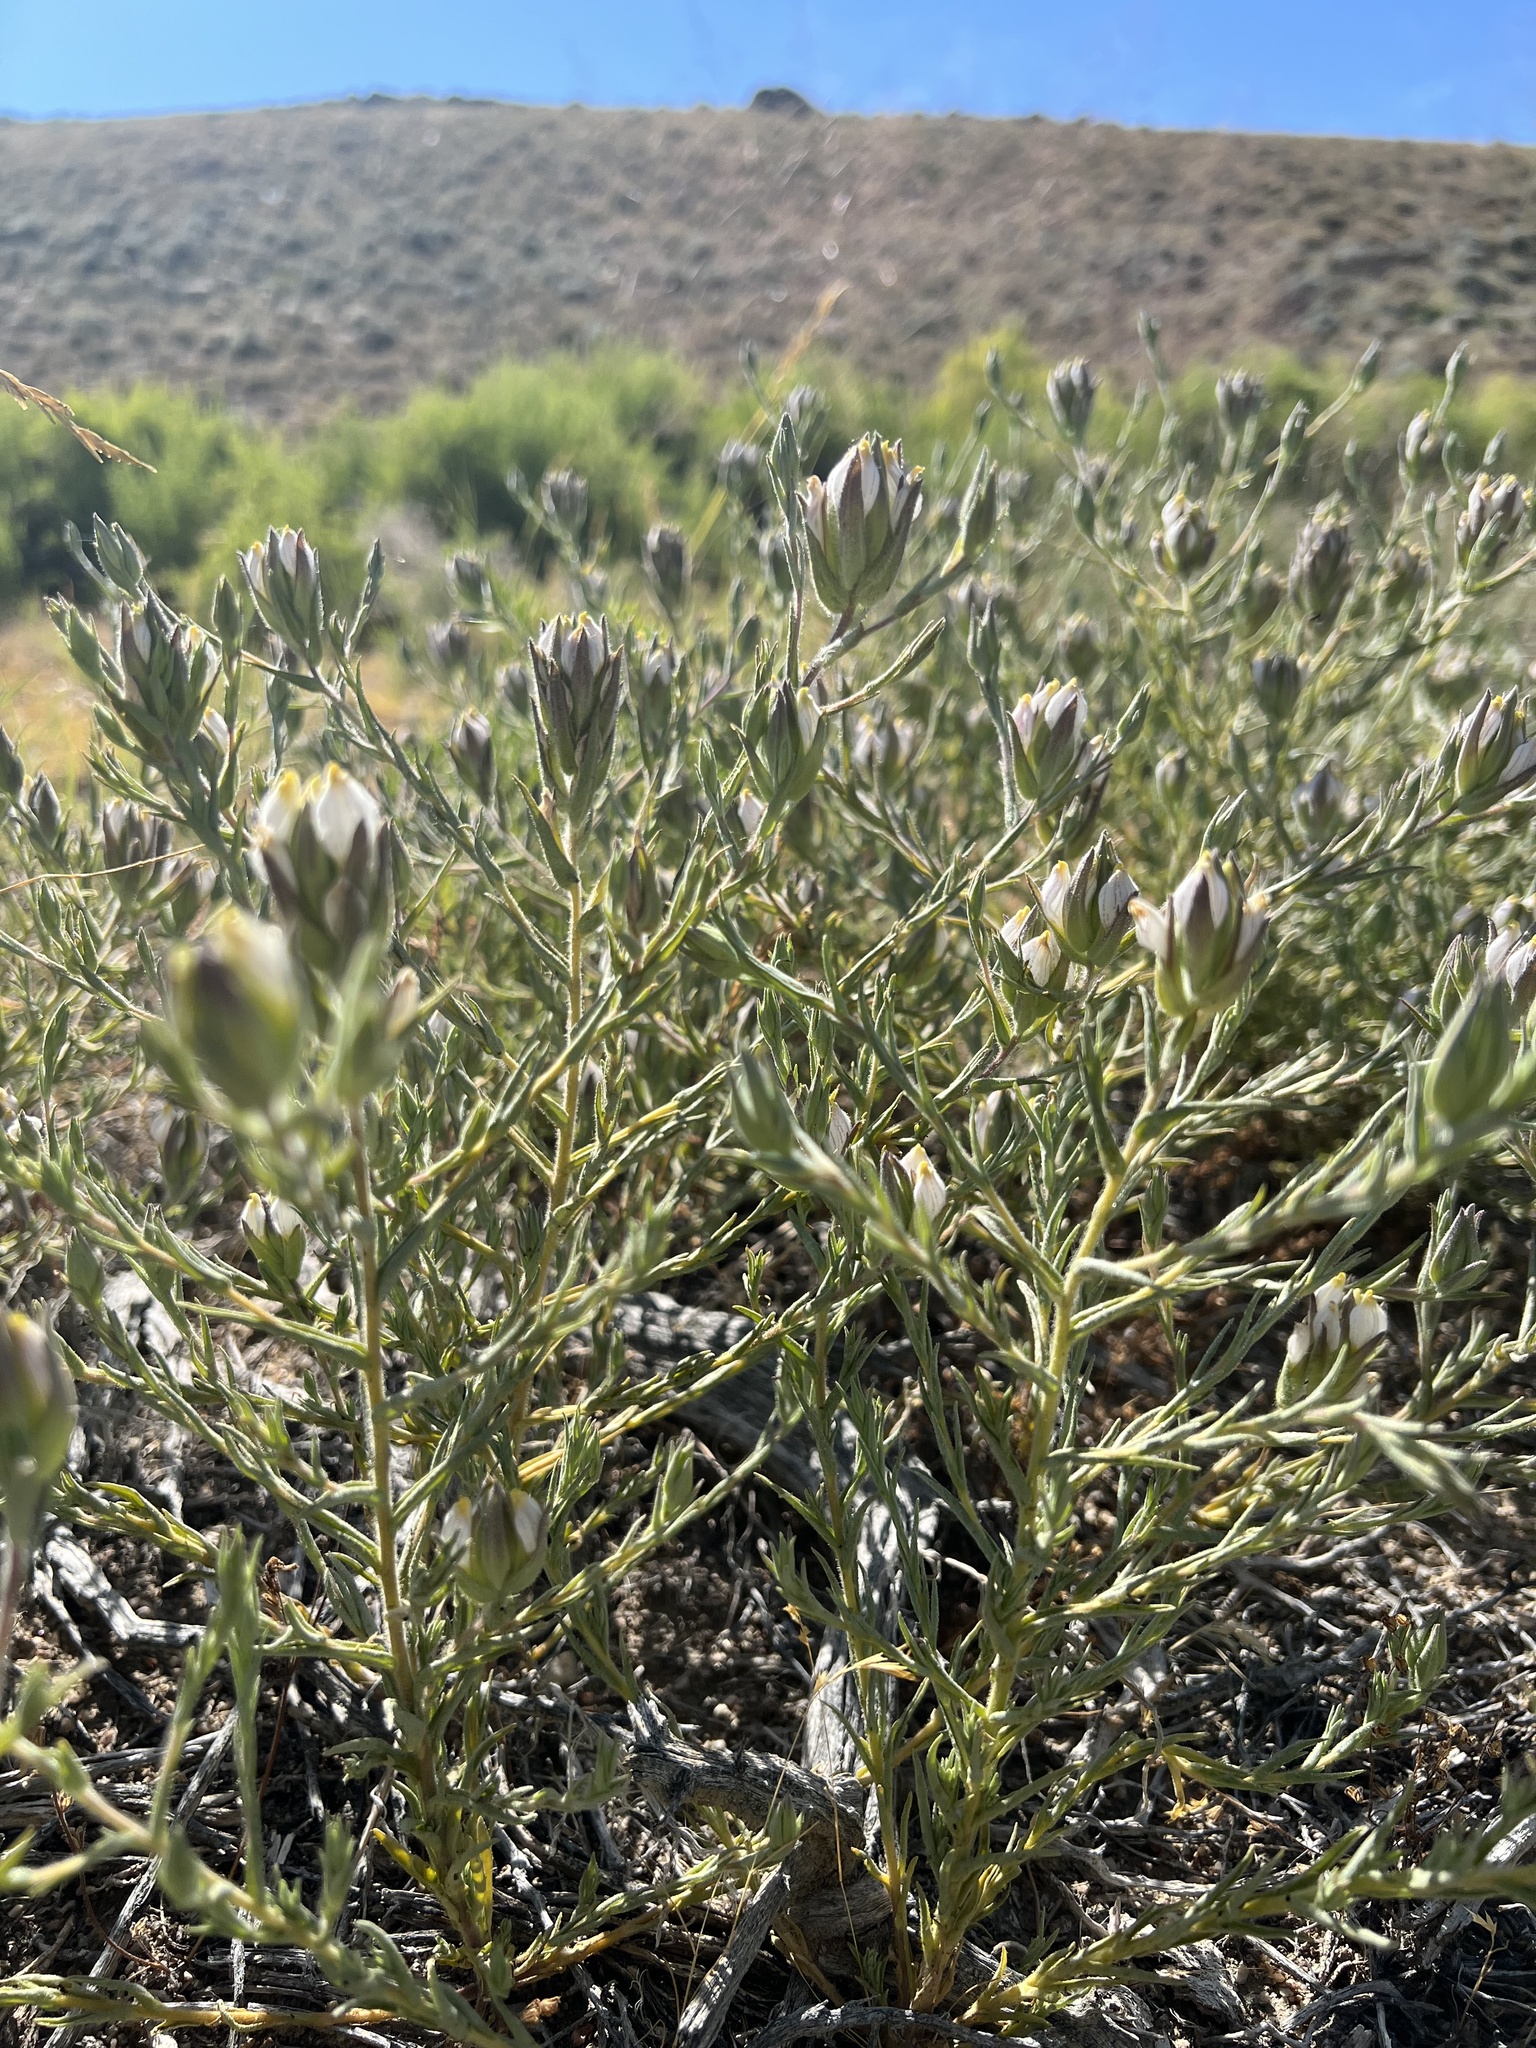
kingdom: Plantae
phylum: Tracheophyta
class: Magnoliopsida
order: Lamiales
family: Orobanchaceae
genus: Chloropyron
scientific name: Chloropyron maritimum
